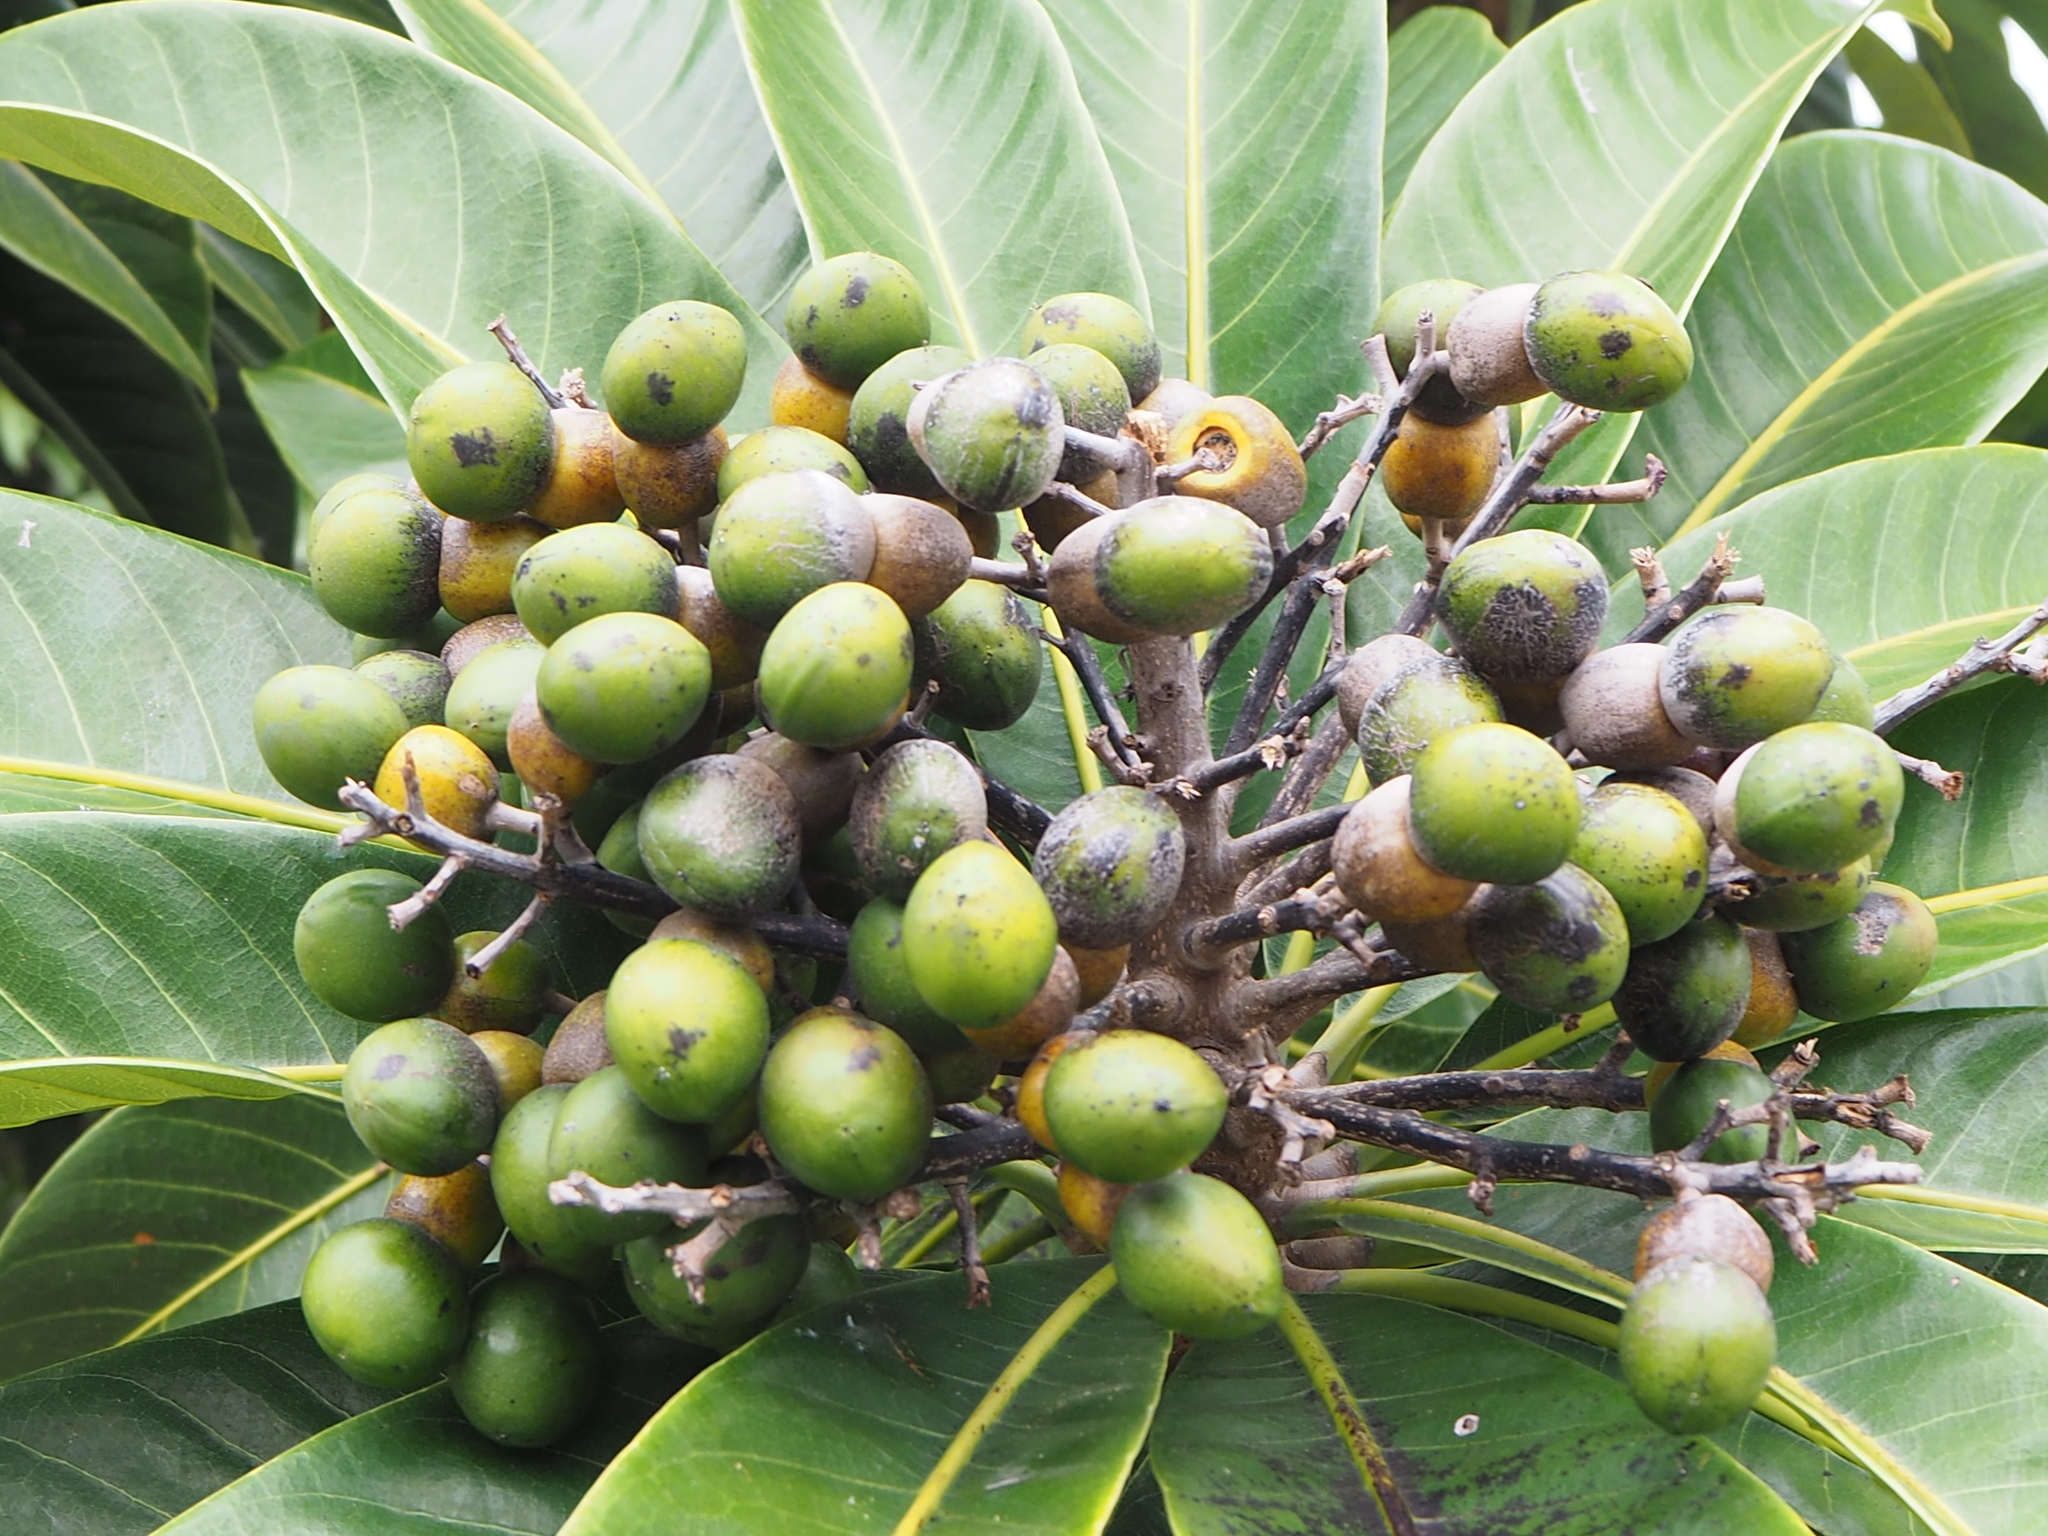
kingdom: Plantae
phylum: Tracheophyta
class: Magnoliopsida
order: Sapindales
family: Anacardiaceae
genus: Semecarpus
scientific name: Semecarpus longifolius
